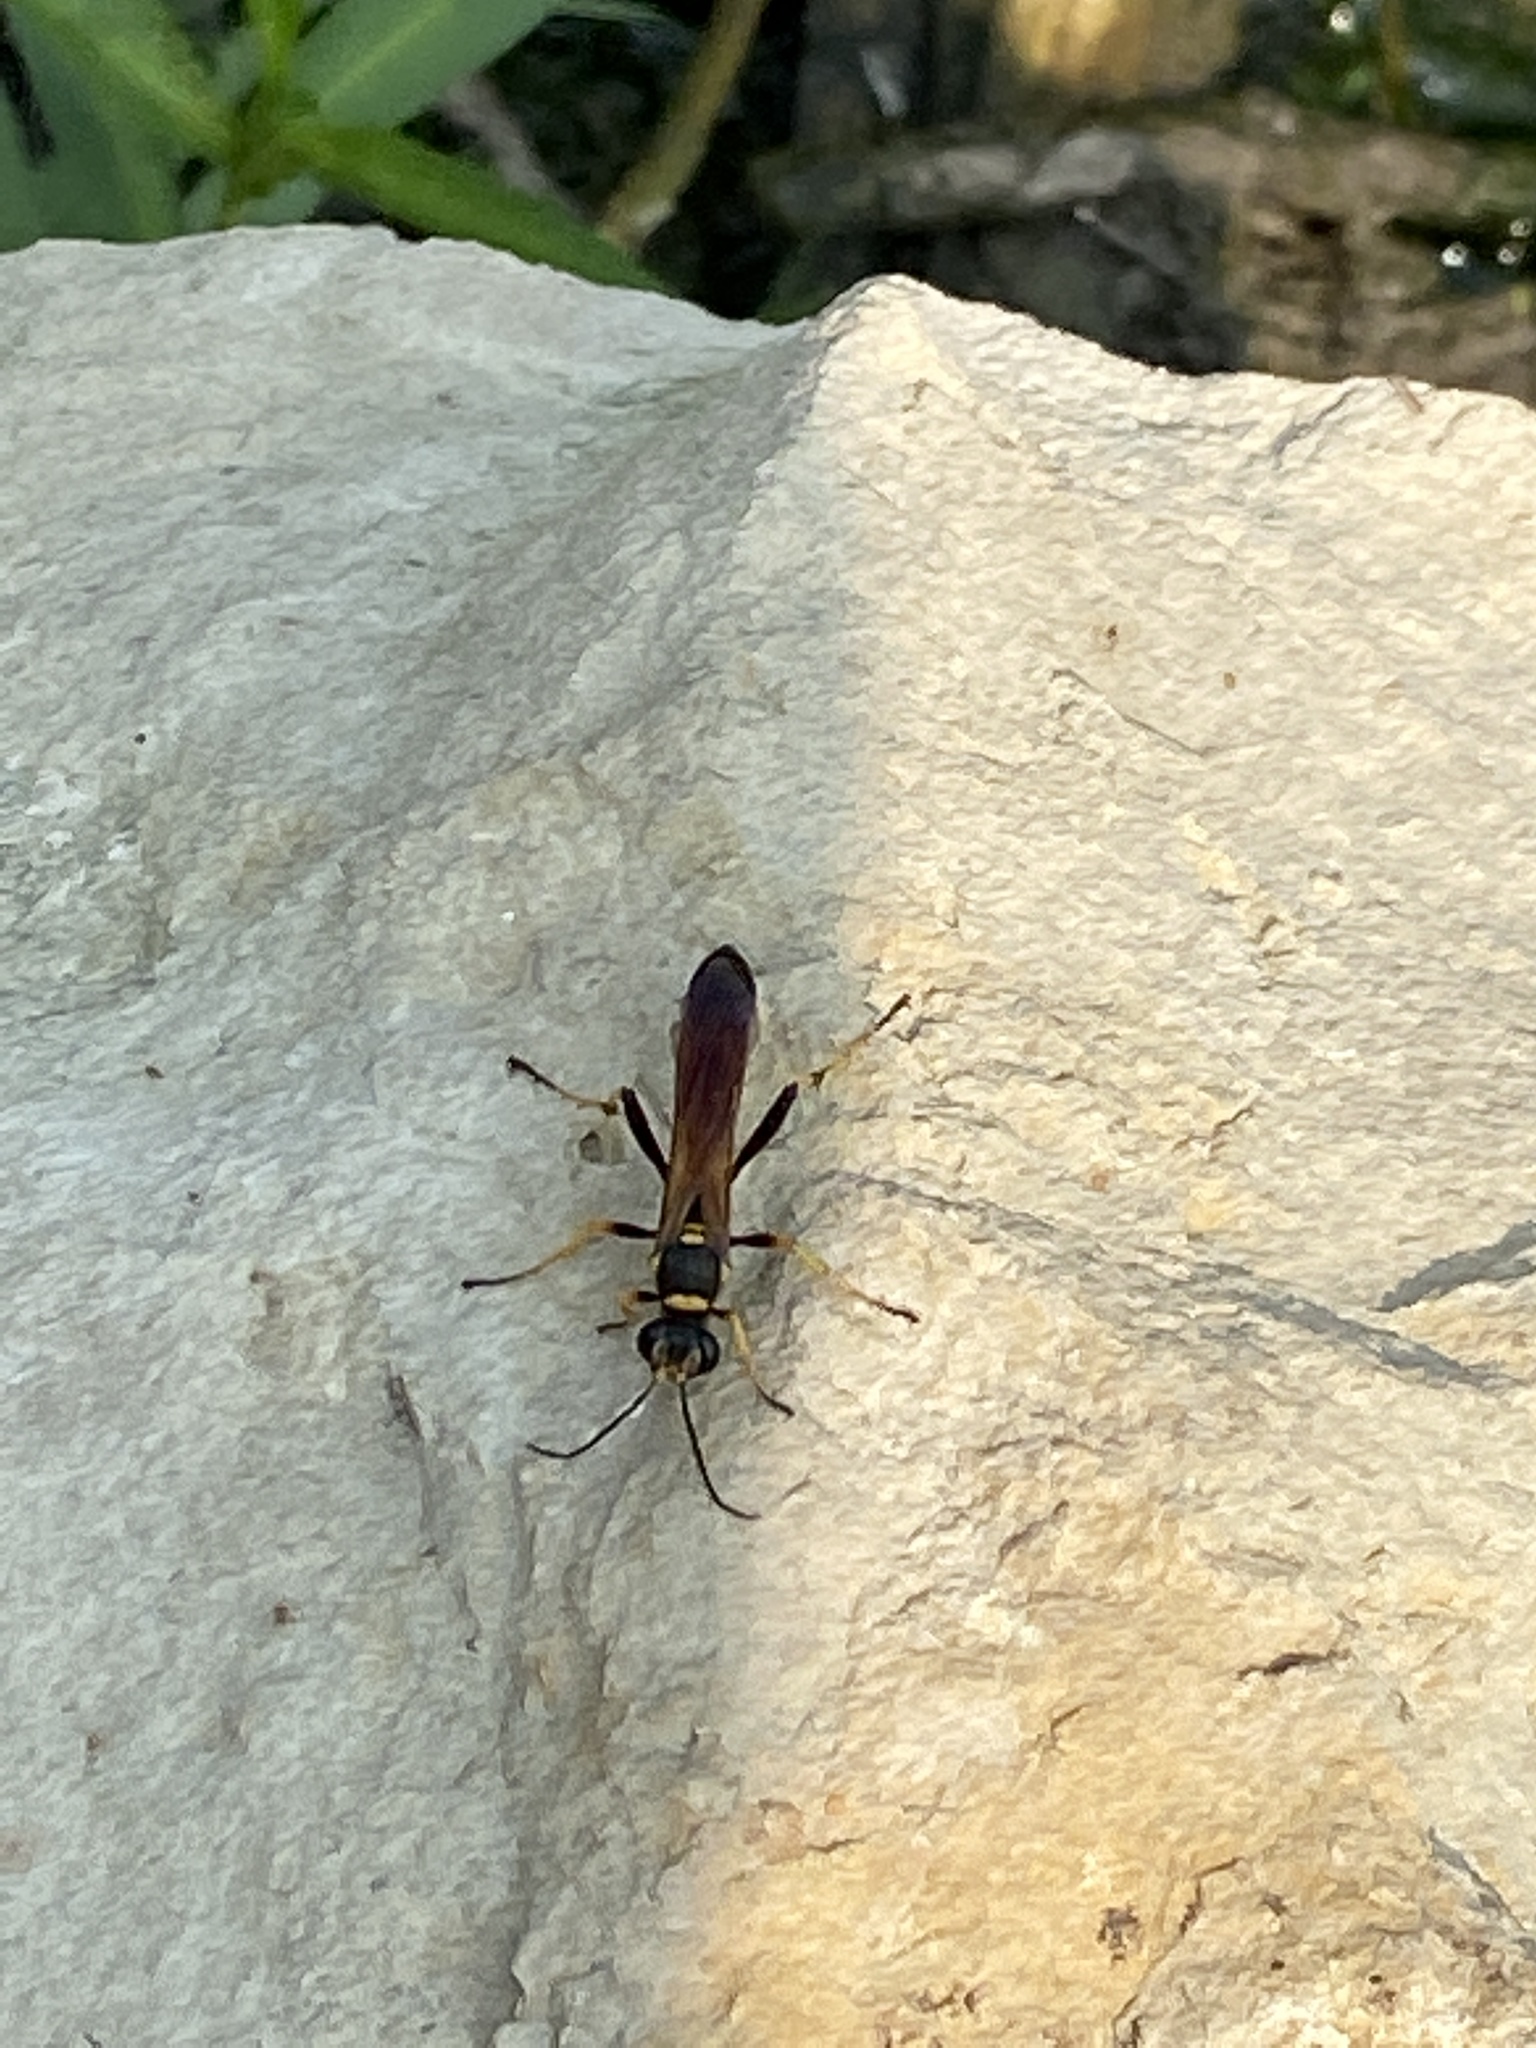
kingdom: Animalia
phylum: Arthropoda
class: Insecta
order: Hymenoptera
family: Sphecidae
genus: Sceliphron
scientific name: Sceliphron caementarium
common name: Mud dauber
